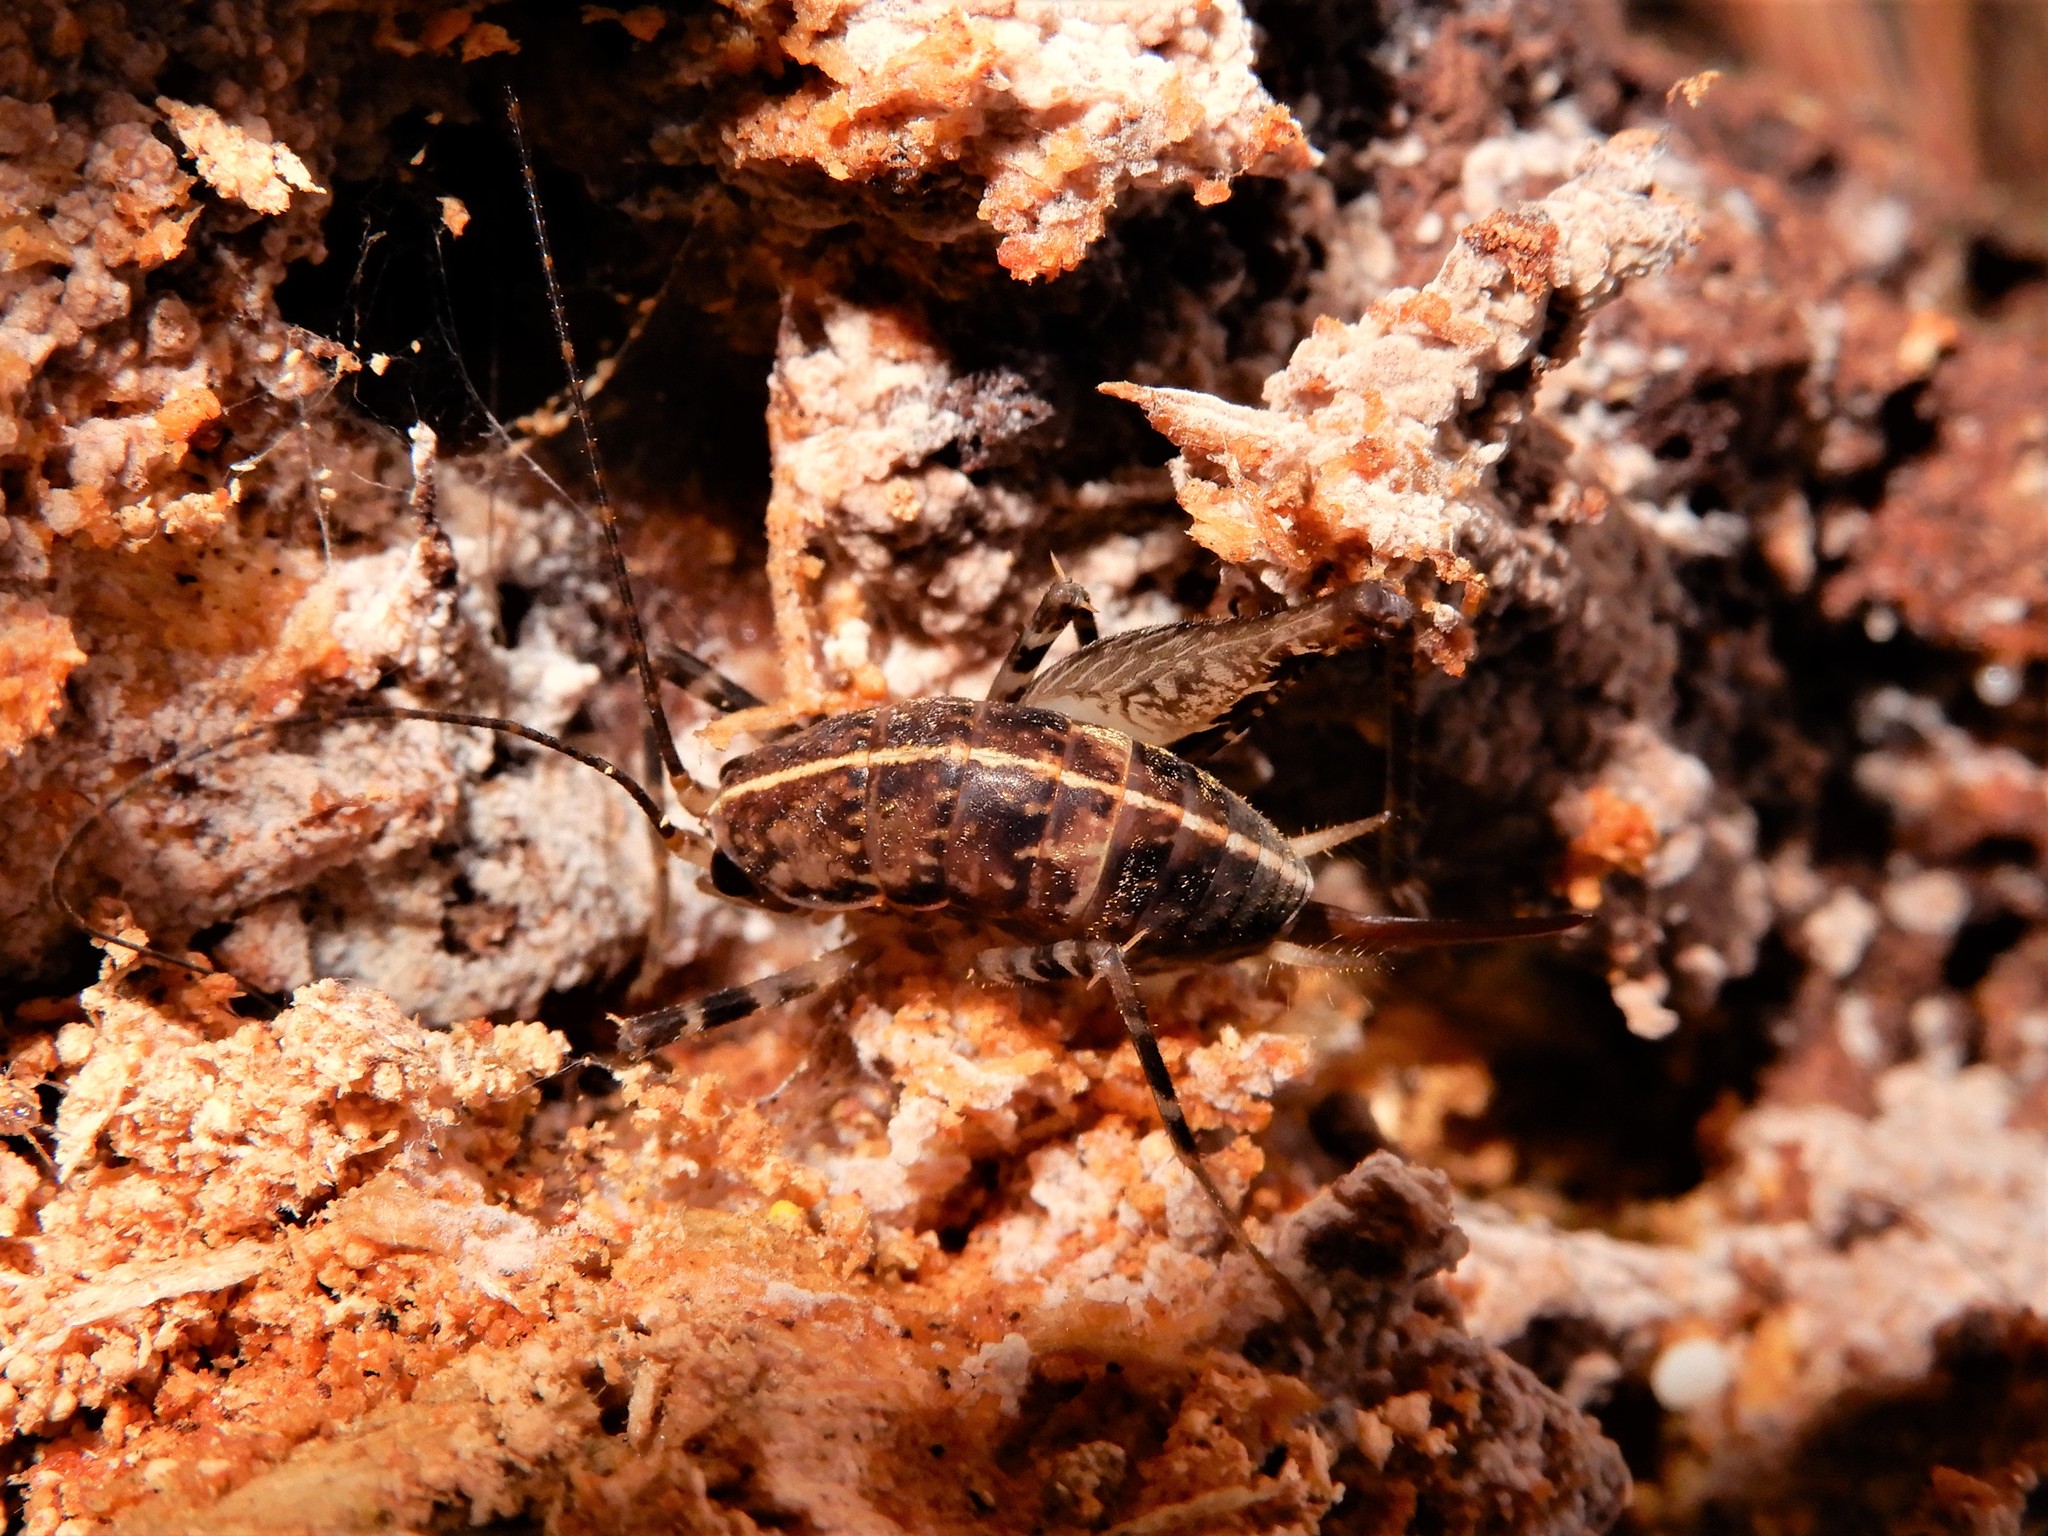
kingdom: Animalia
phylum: Arthropoda
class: Insecta
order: Orthoptera
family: Rhaphidophoridae
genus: Pleioplectron
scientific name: Pleioplectron hudsoni
